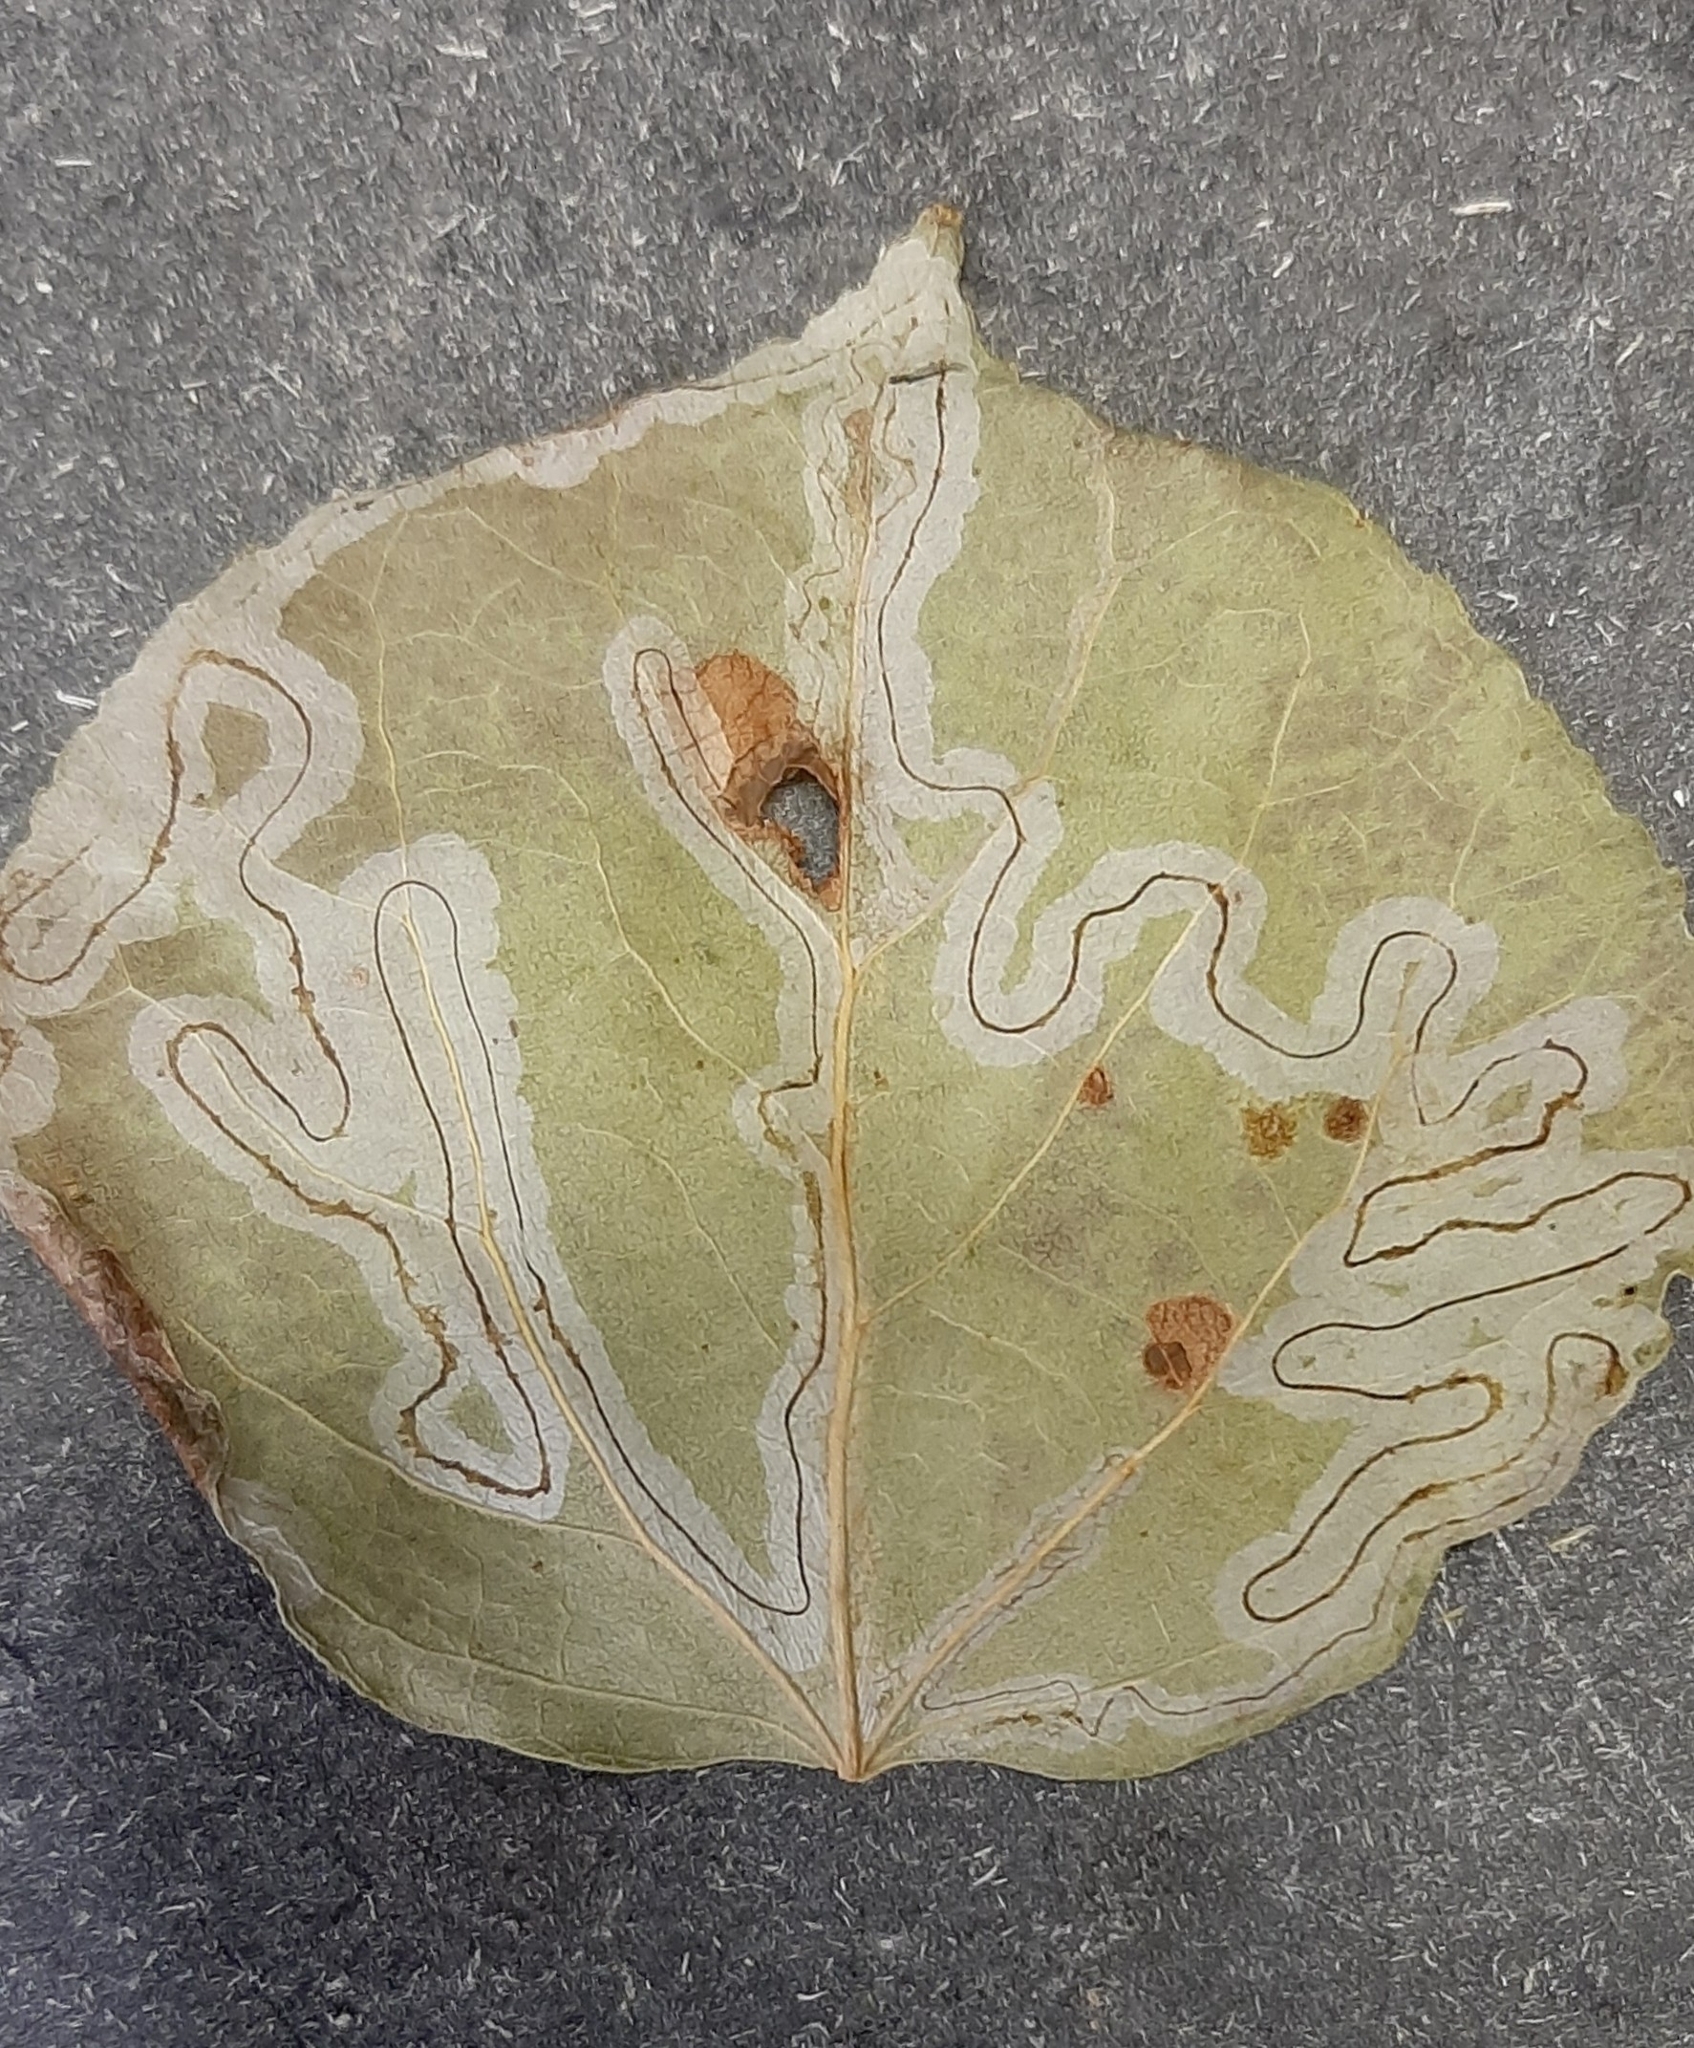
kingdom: Animalia
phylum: Arthropoda
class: Insecta
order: Lepidoptera
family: Gracillariidae
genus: Phyllocnistis
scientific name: Phyllocnistis populiella
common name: Aspen serpentine leafminer moth
